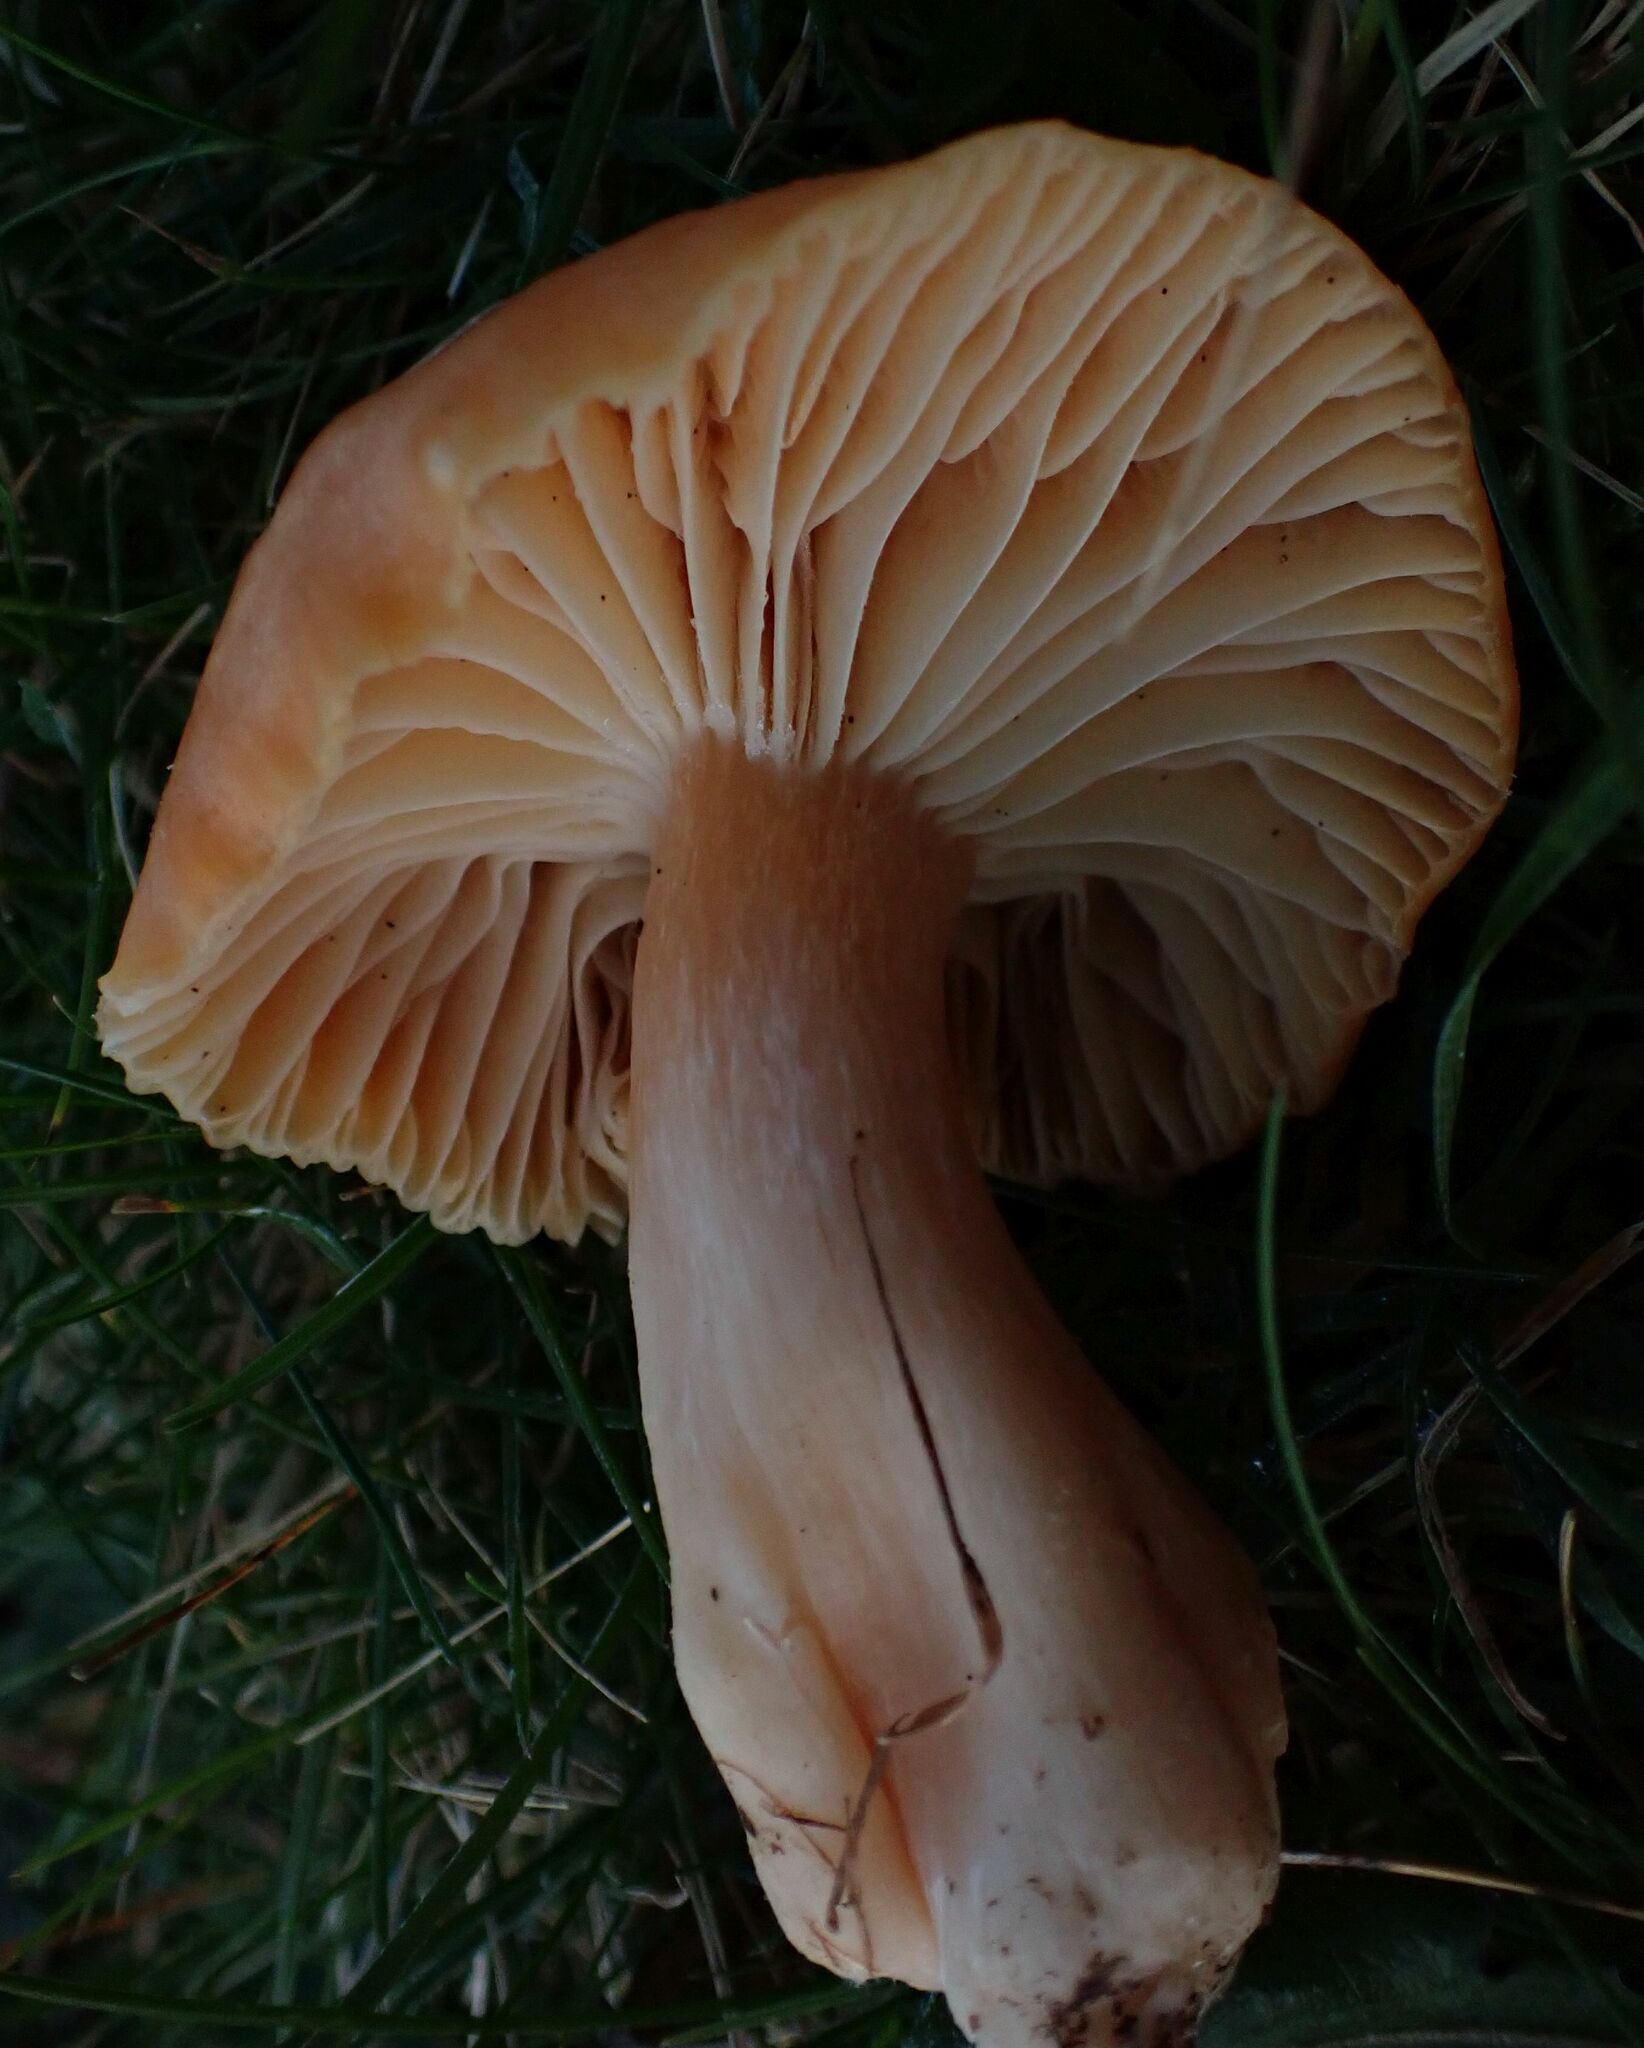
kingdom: Fungi
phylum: Basidiomycota
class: Agaricomycetes
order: Agaricales
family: Hygrophoraceae
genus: Cuphophyllus
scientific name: Cuphophyllus pratensis
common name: Meadow waxcap
